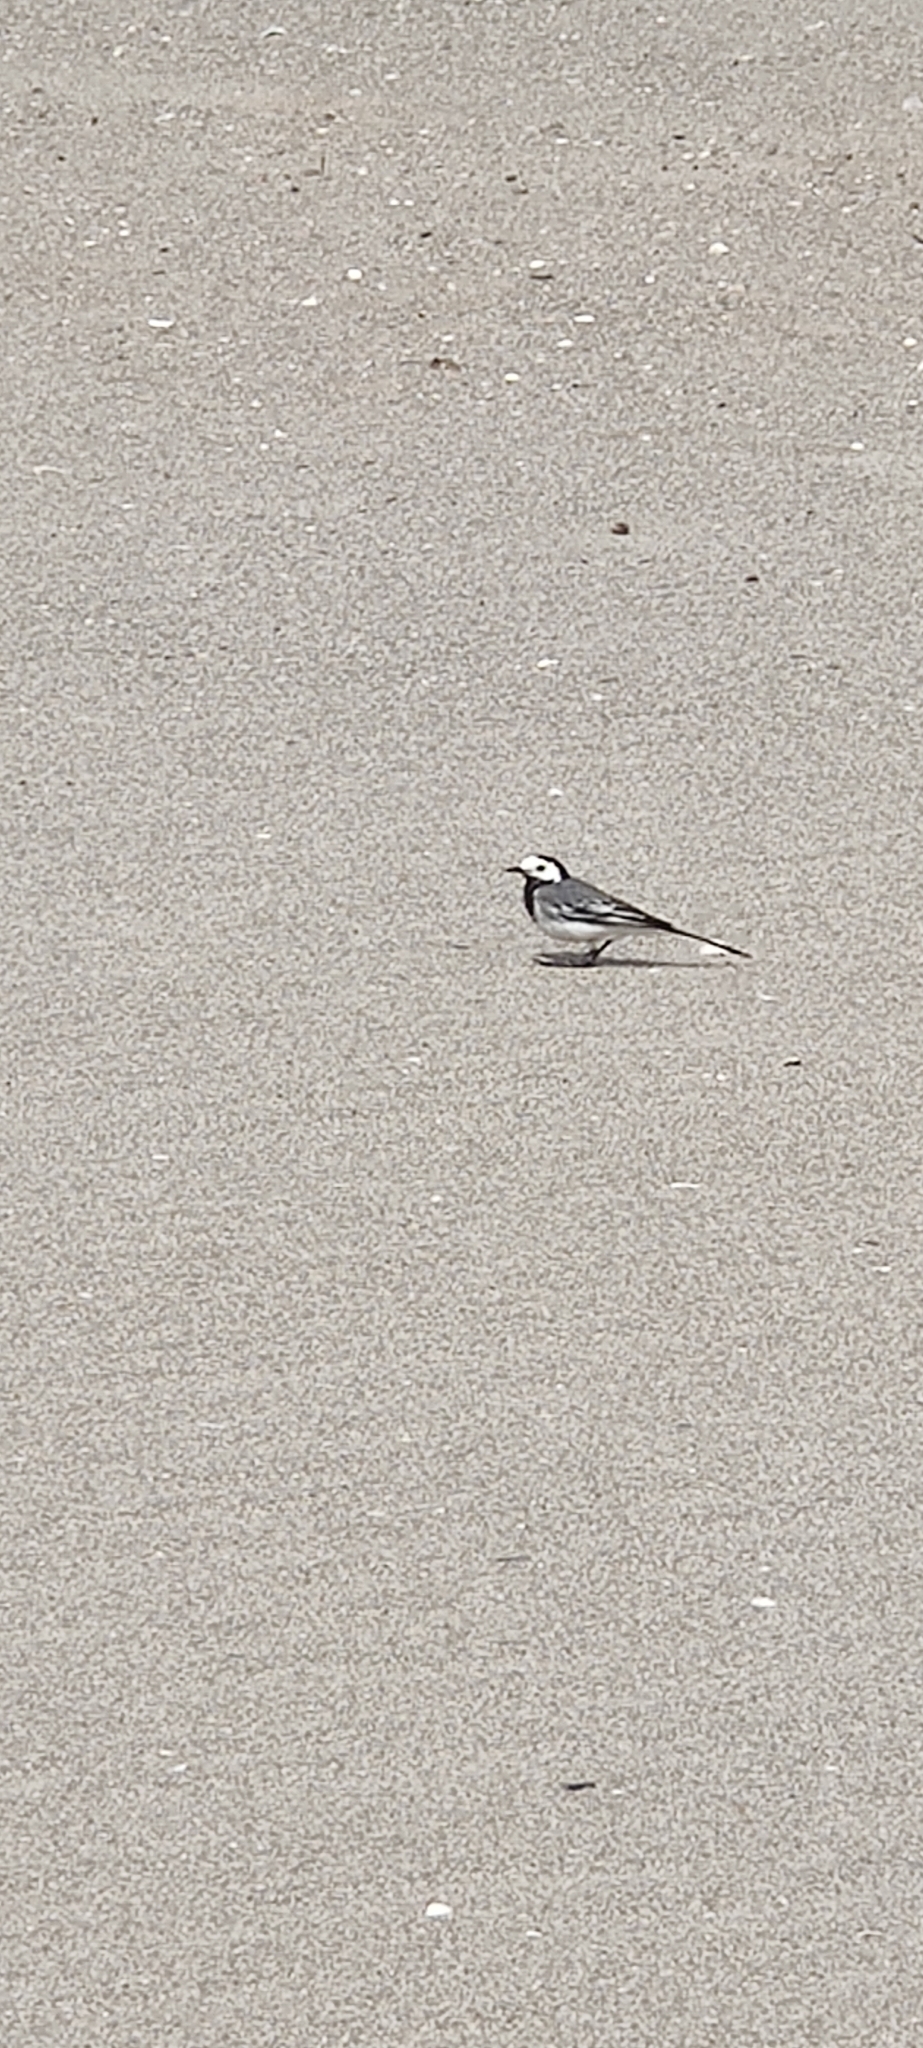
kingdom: Animalia
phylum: Chordata
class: Aves
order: Passeriformes
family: Motacillidae
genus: Motacilla
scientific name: Motacilla alba
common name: White wagtail
